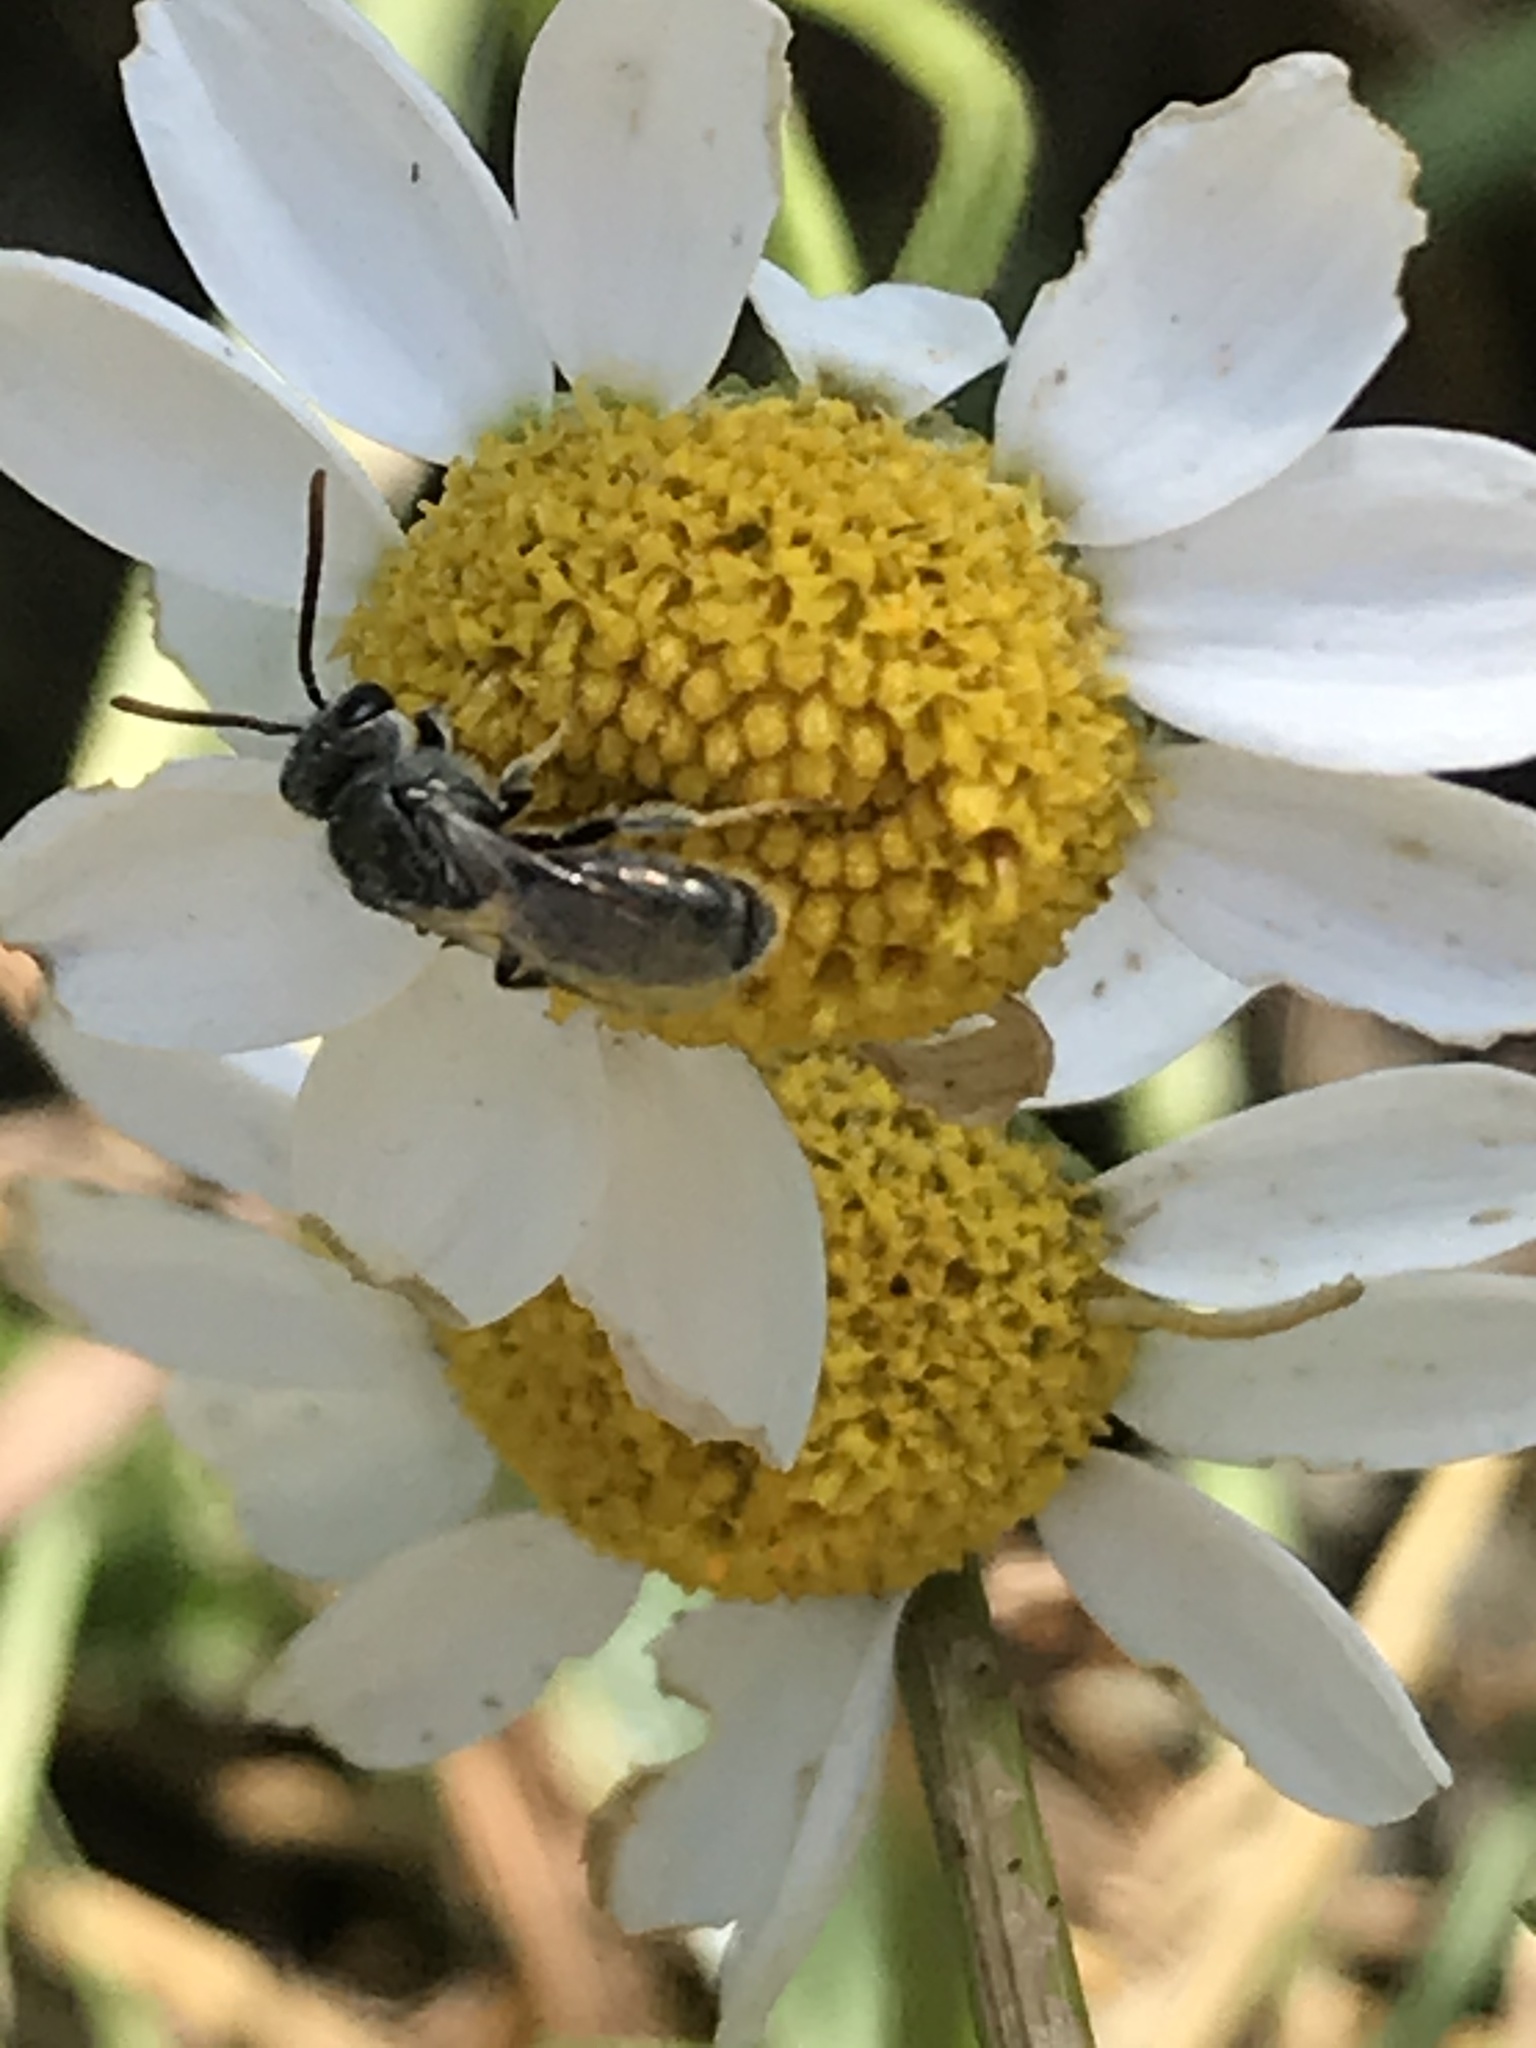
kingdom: Animalia
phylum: Arthropoda
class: Insecta
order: Hymenoptera
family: Halictidae
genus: Dialictus
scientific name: Dialictus
